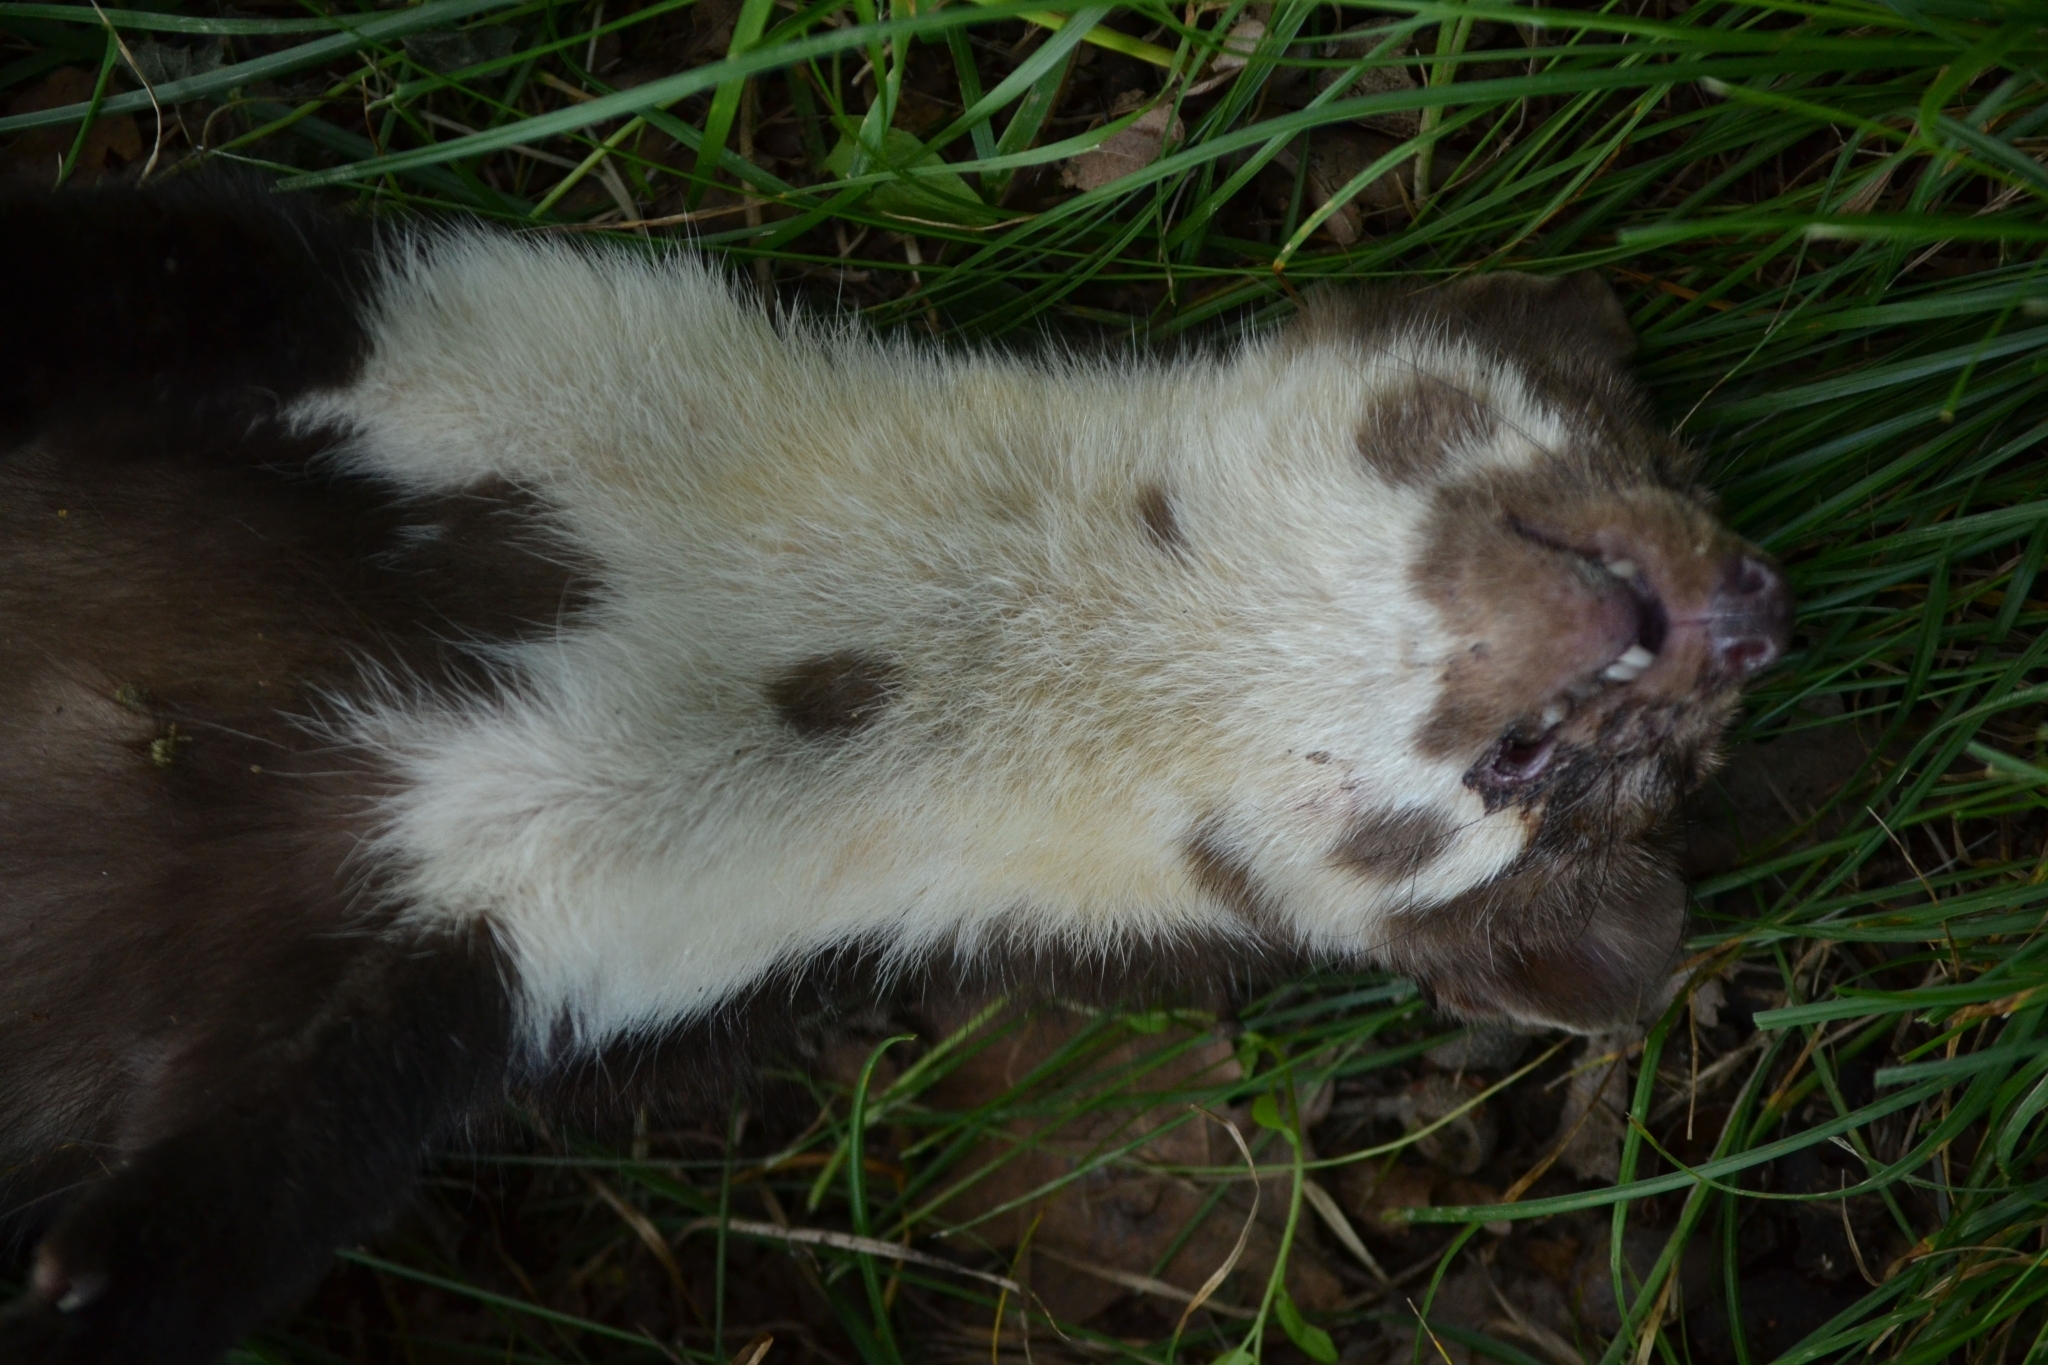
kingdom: Animalia
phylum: Chordata
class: Mammalia
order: Carnivora
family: Mustelidae
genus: Martes
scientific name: Martes foina
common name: Beech marten
